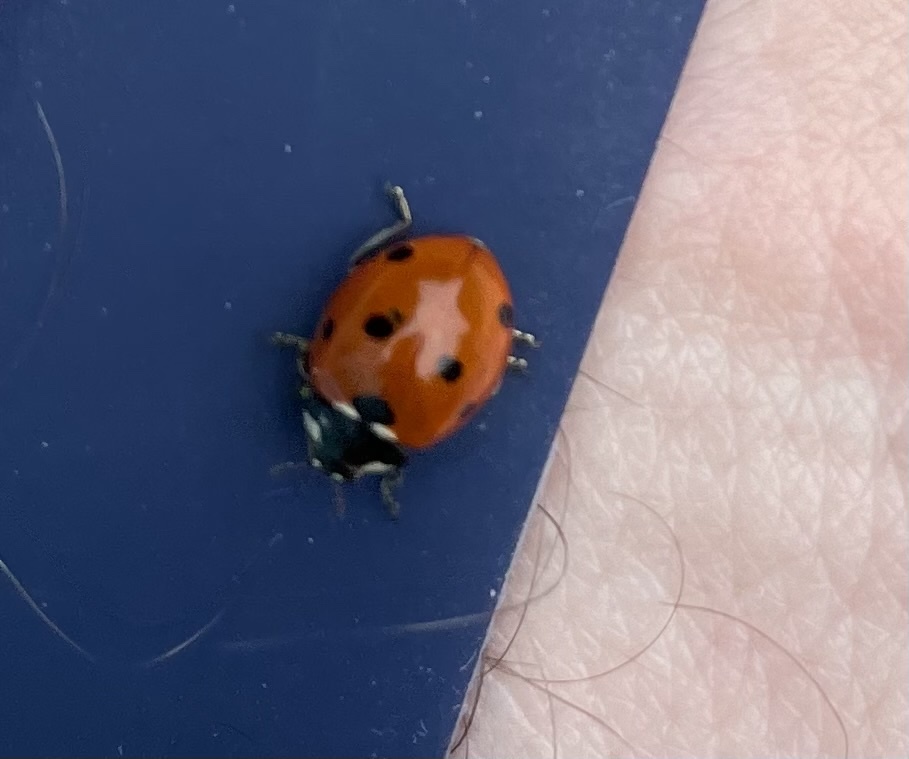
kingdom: Animalia
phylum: Arthropoda
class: Insecta
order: Coleoptera
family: Coccinellidae
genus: Coccinella
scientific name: Coccinella septempunctata
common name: Sevenspotted lady beetle
